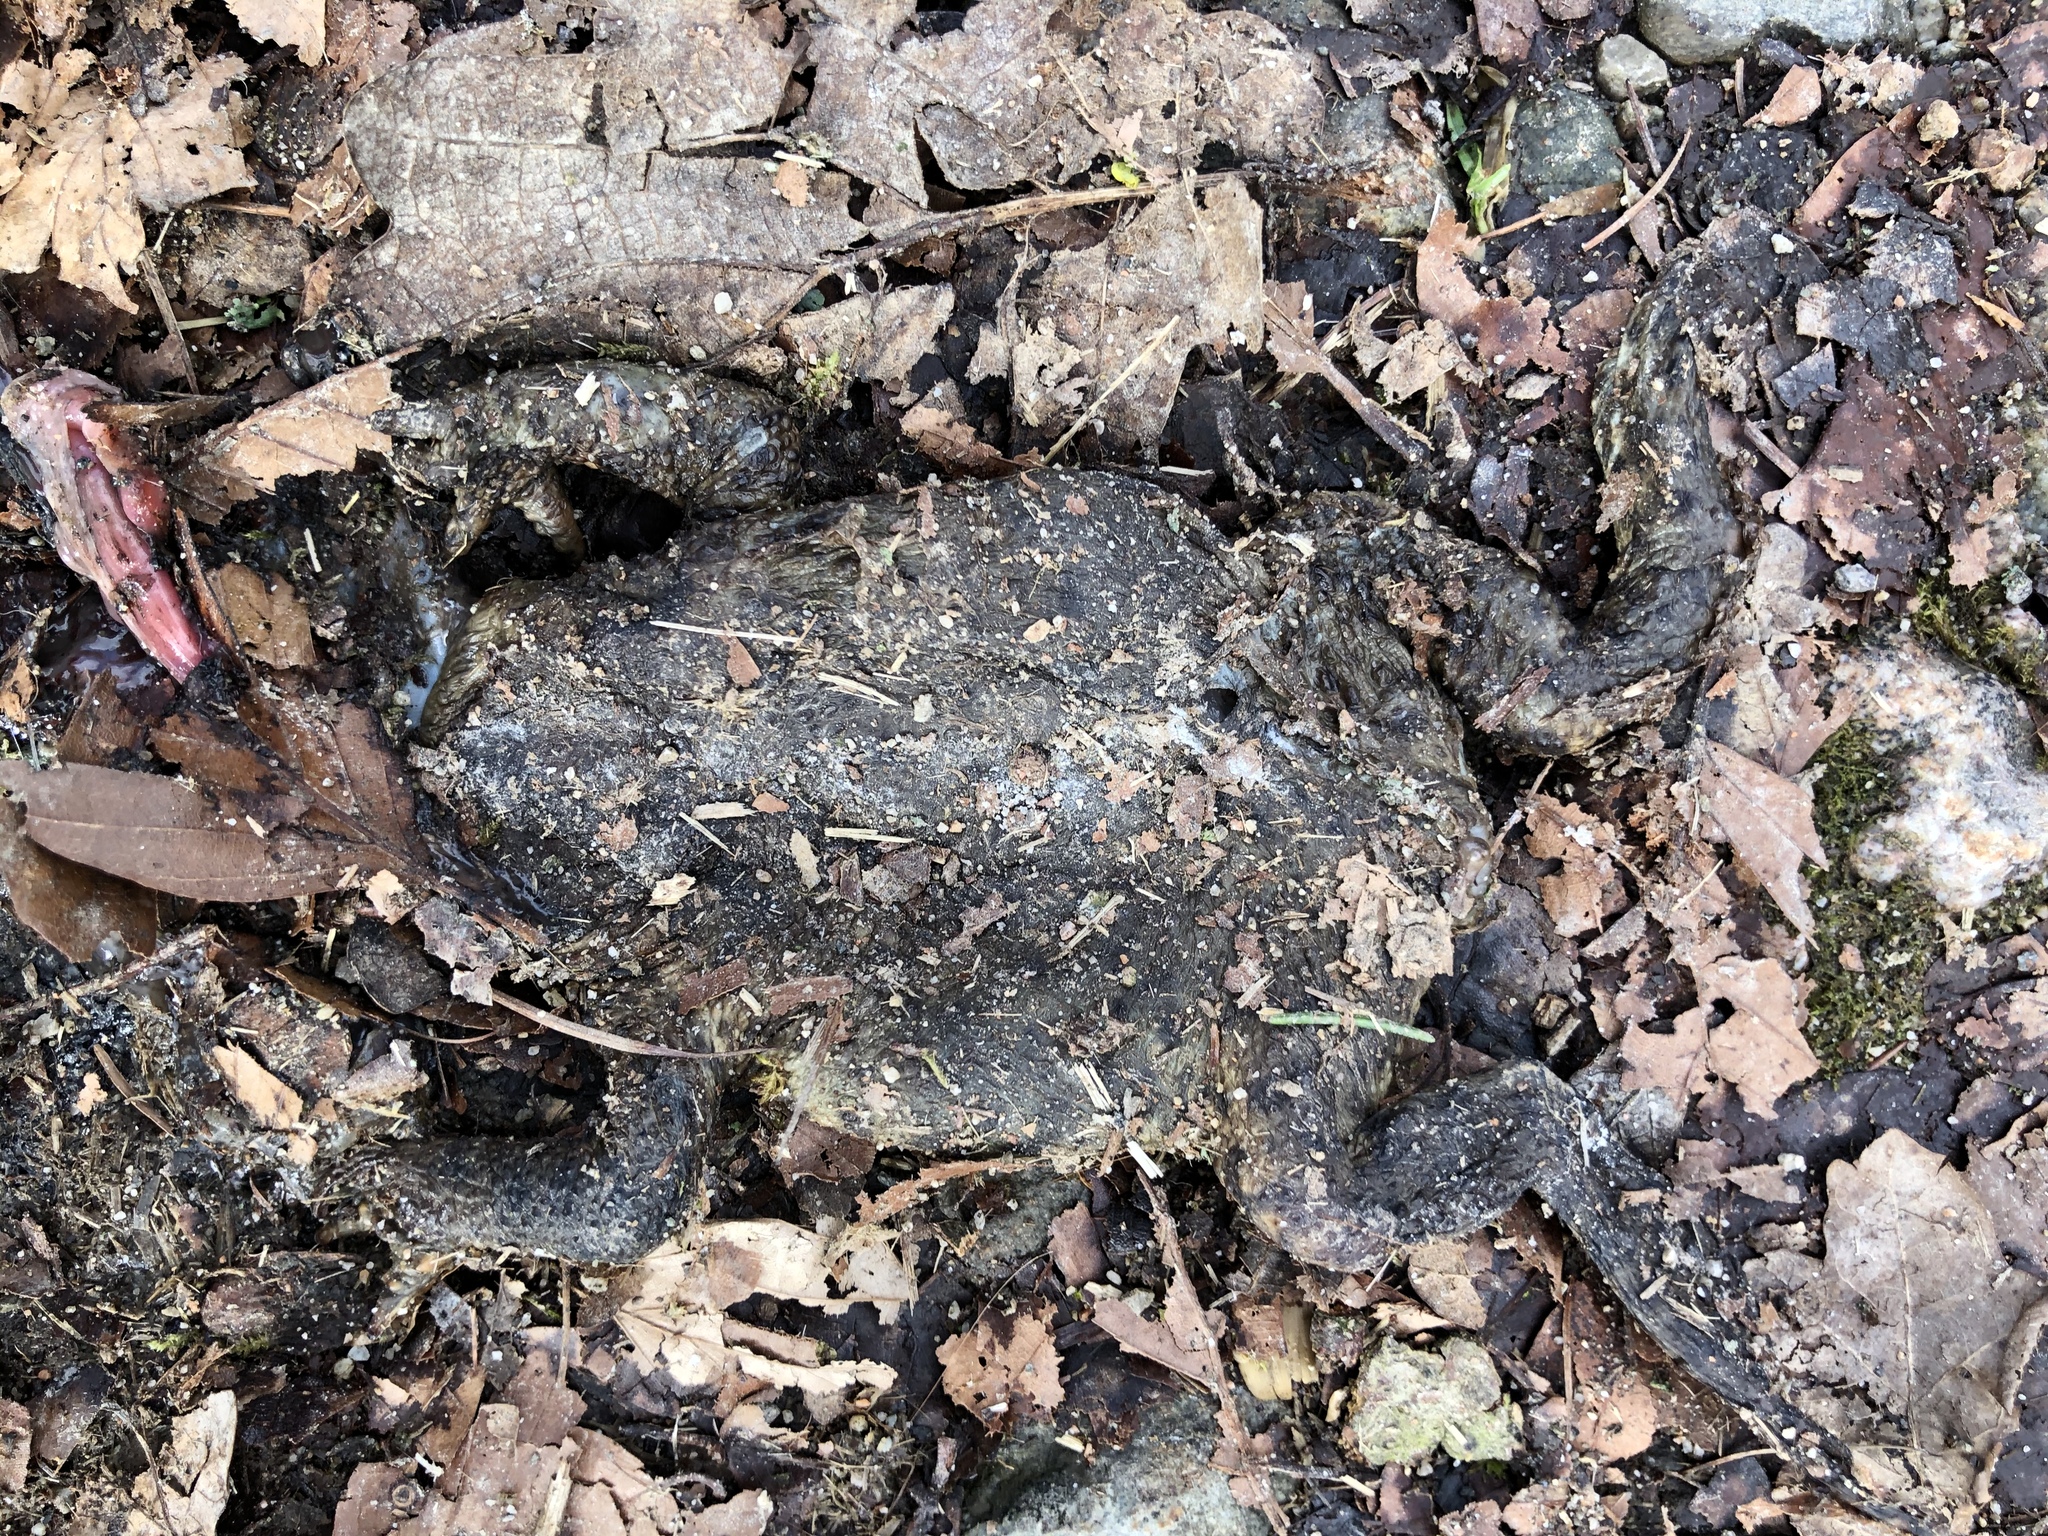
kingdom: Animalia
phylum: Chordata
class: Amphibia
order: Anura
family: Bufonidae
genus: Bufo
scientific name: Bufo bufo
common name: Common toad
